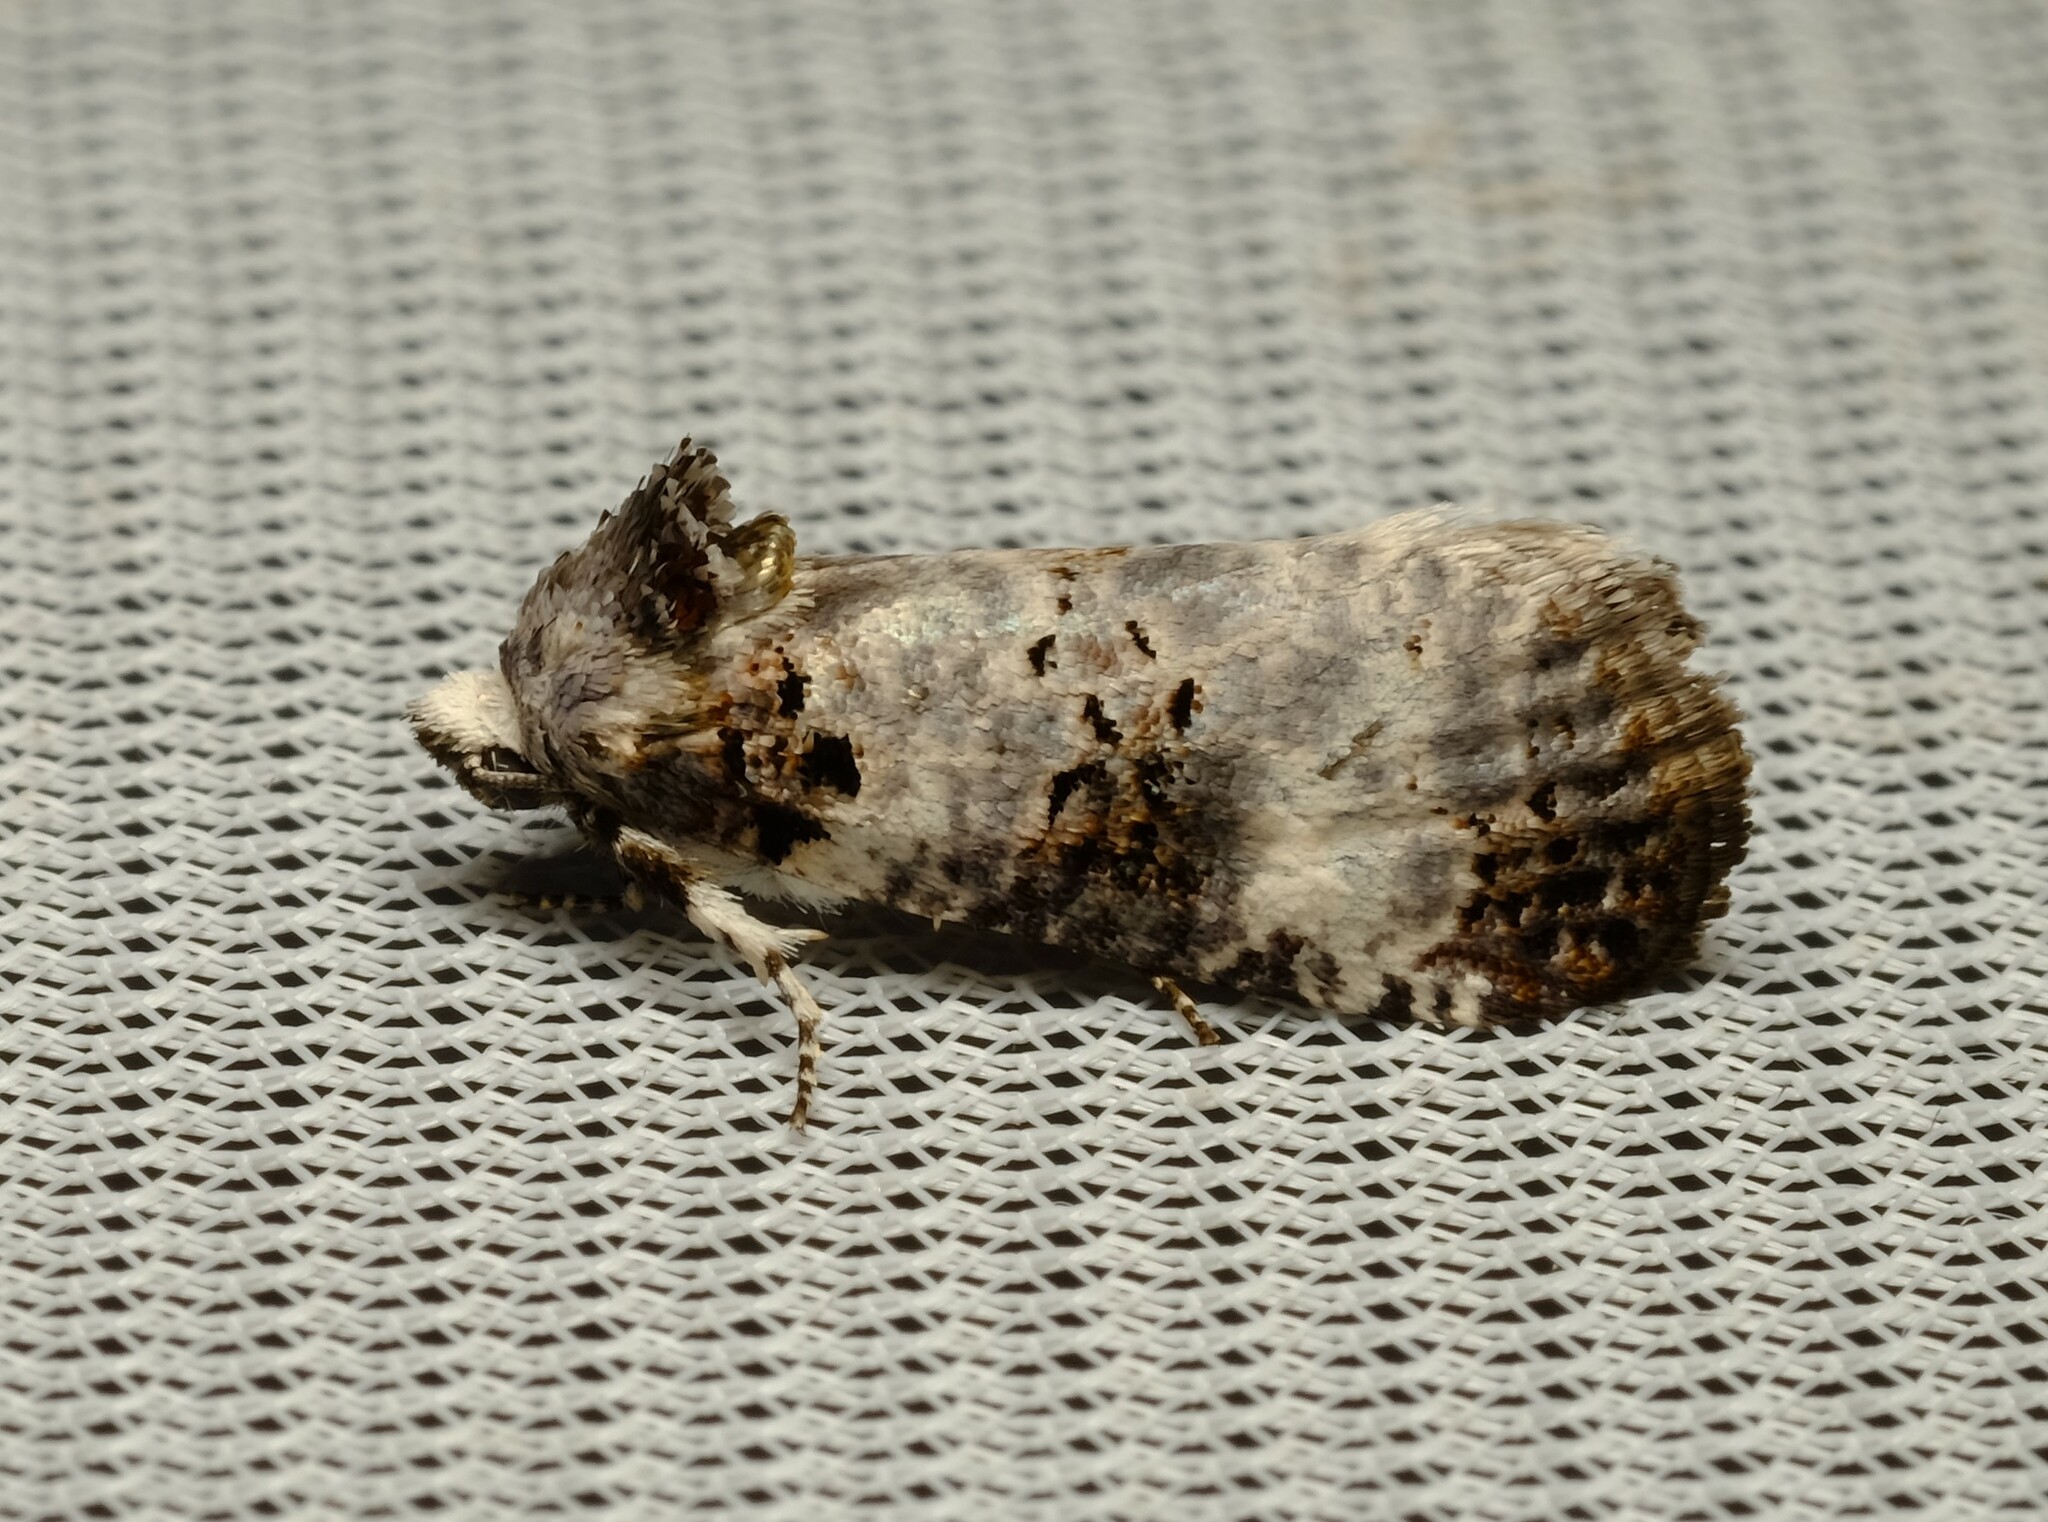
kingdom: Animalia
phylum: Arthropoda
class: Insecta
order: Lepidoptera
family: Cossidae
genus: Idioses
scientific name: Idioses littleri
